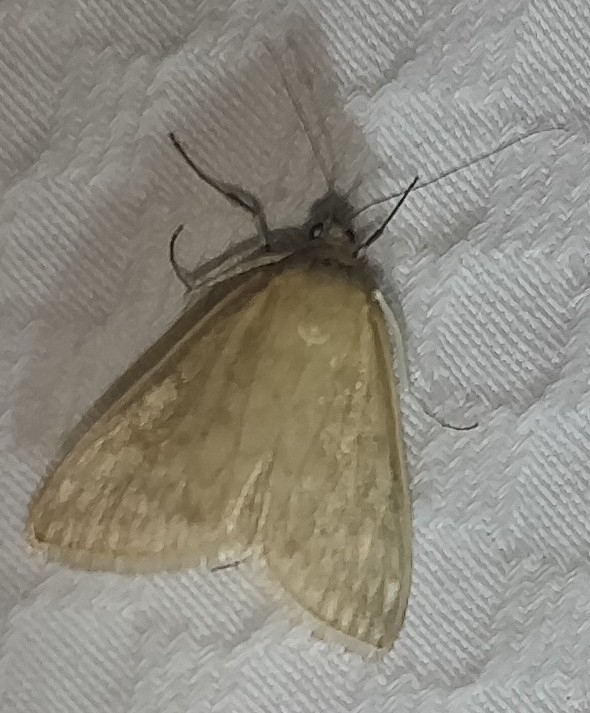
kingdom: Animalia
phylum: Arthropoda
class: Insecta
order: Lepidoptera
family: Crambidae
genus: Sitochroa
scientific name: Sitochroa chortalis
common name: Dimorphic sitochroa moth
